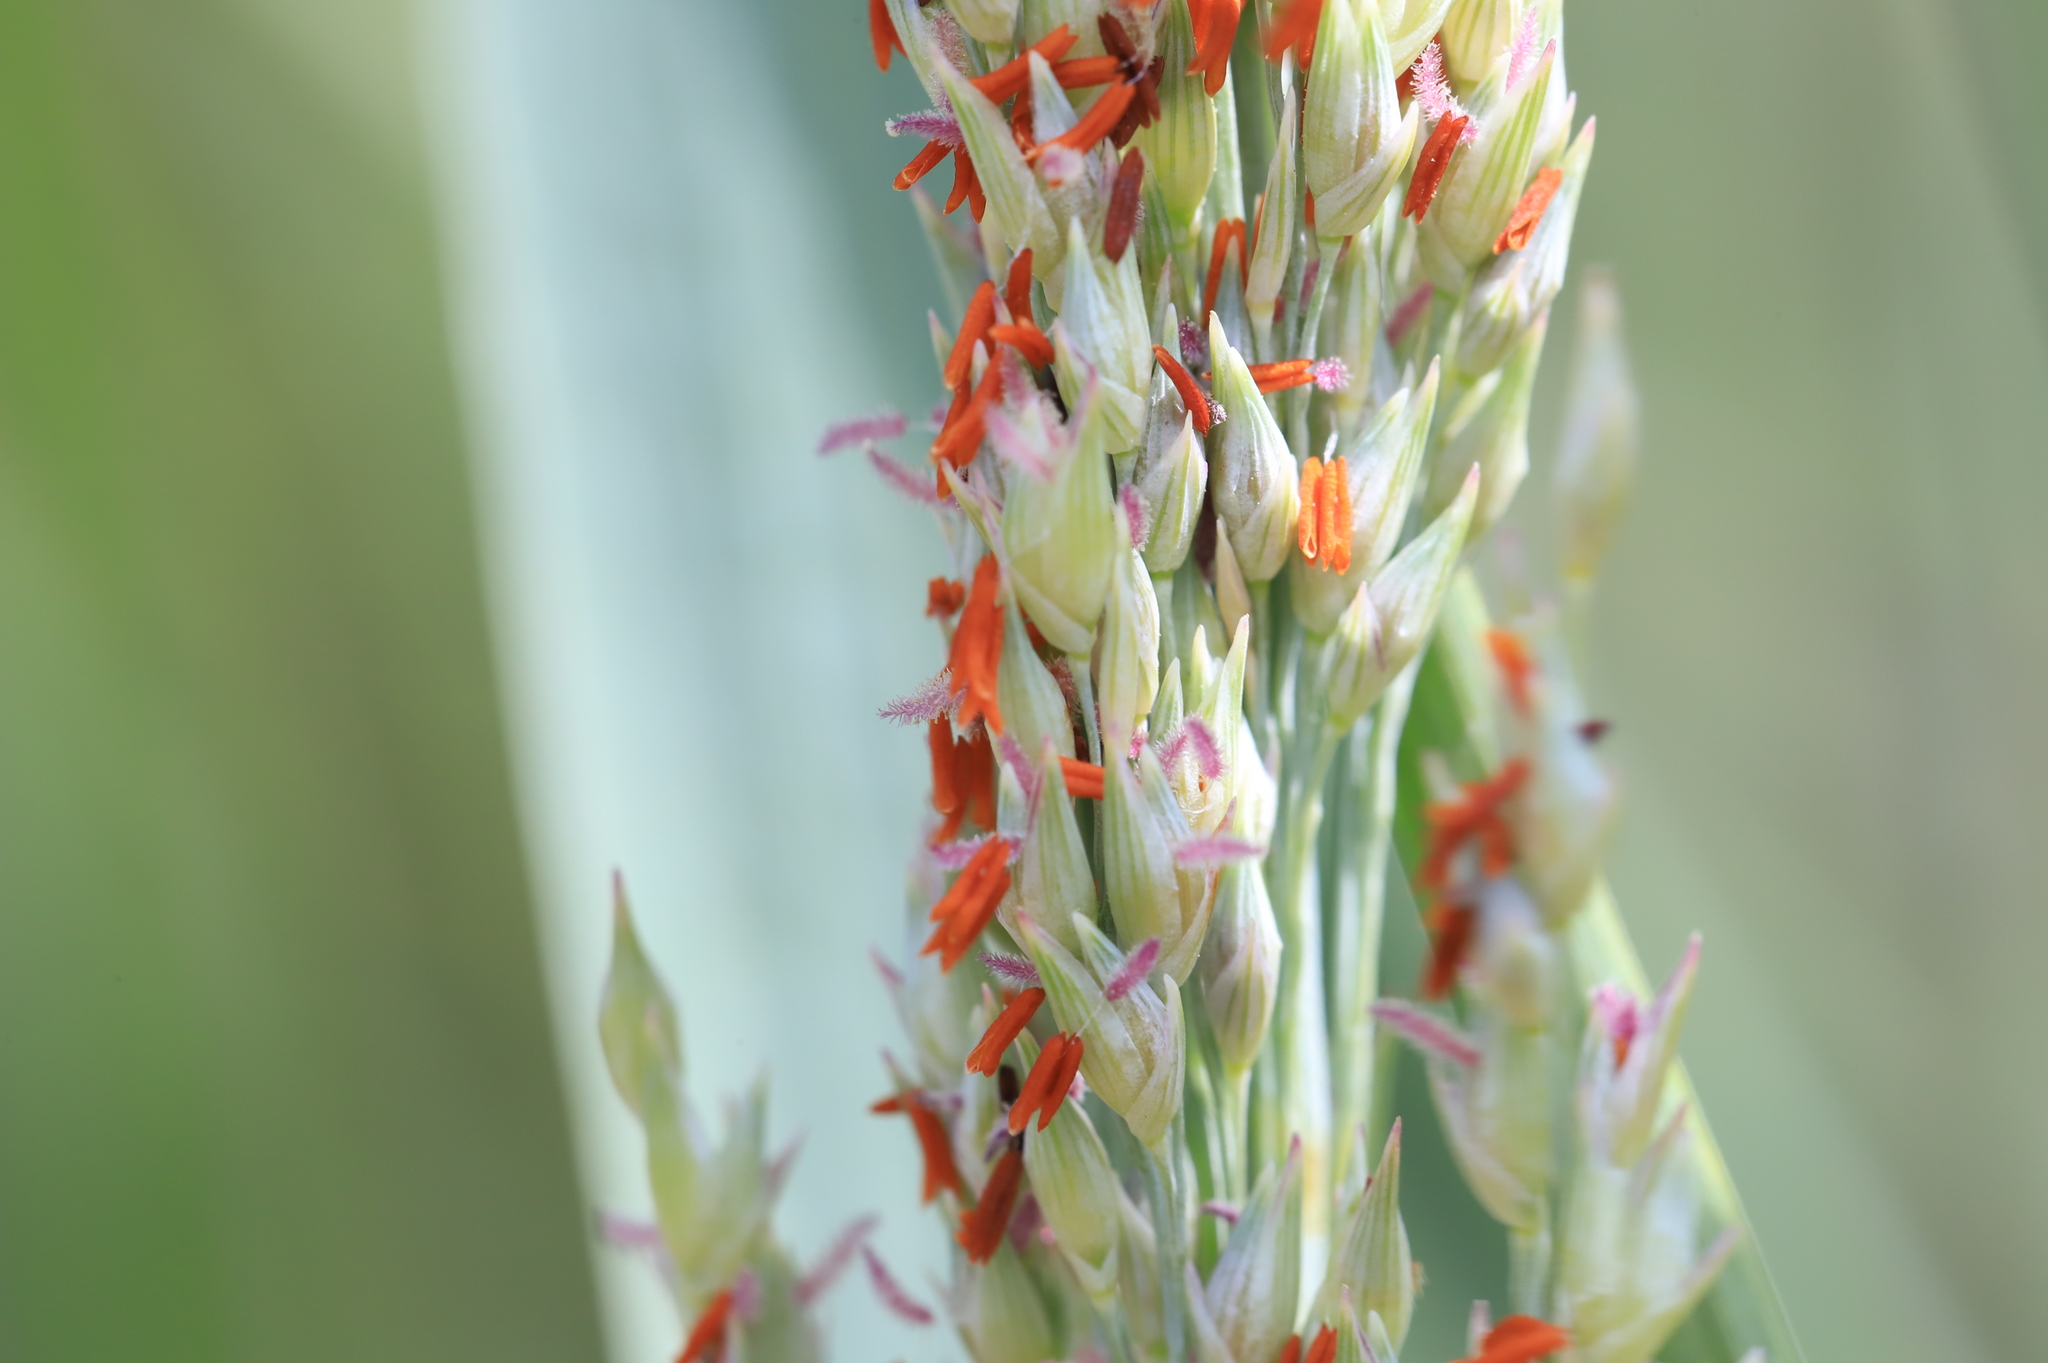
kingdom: Plantae
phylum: Tracheophyta
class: Liliopsida
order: Poales
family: Poaceae
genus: Panicum
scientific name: Panicum amarum
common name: Bitter panicum
